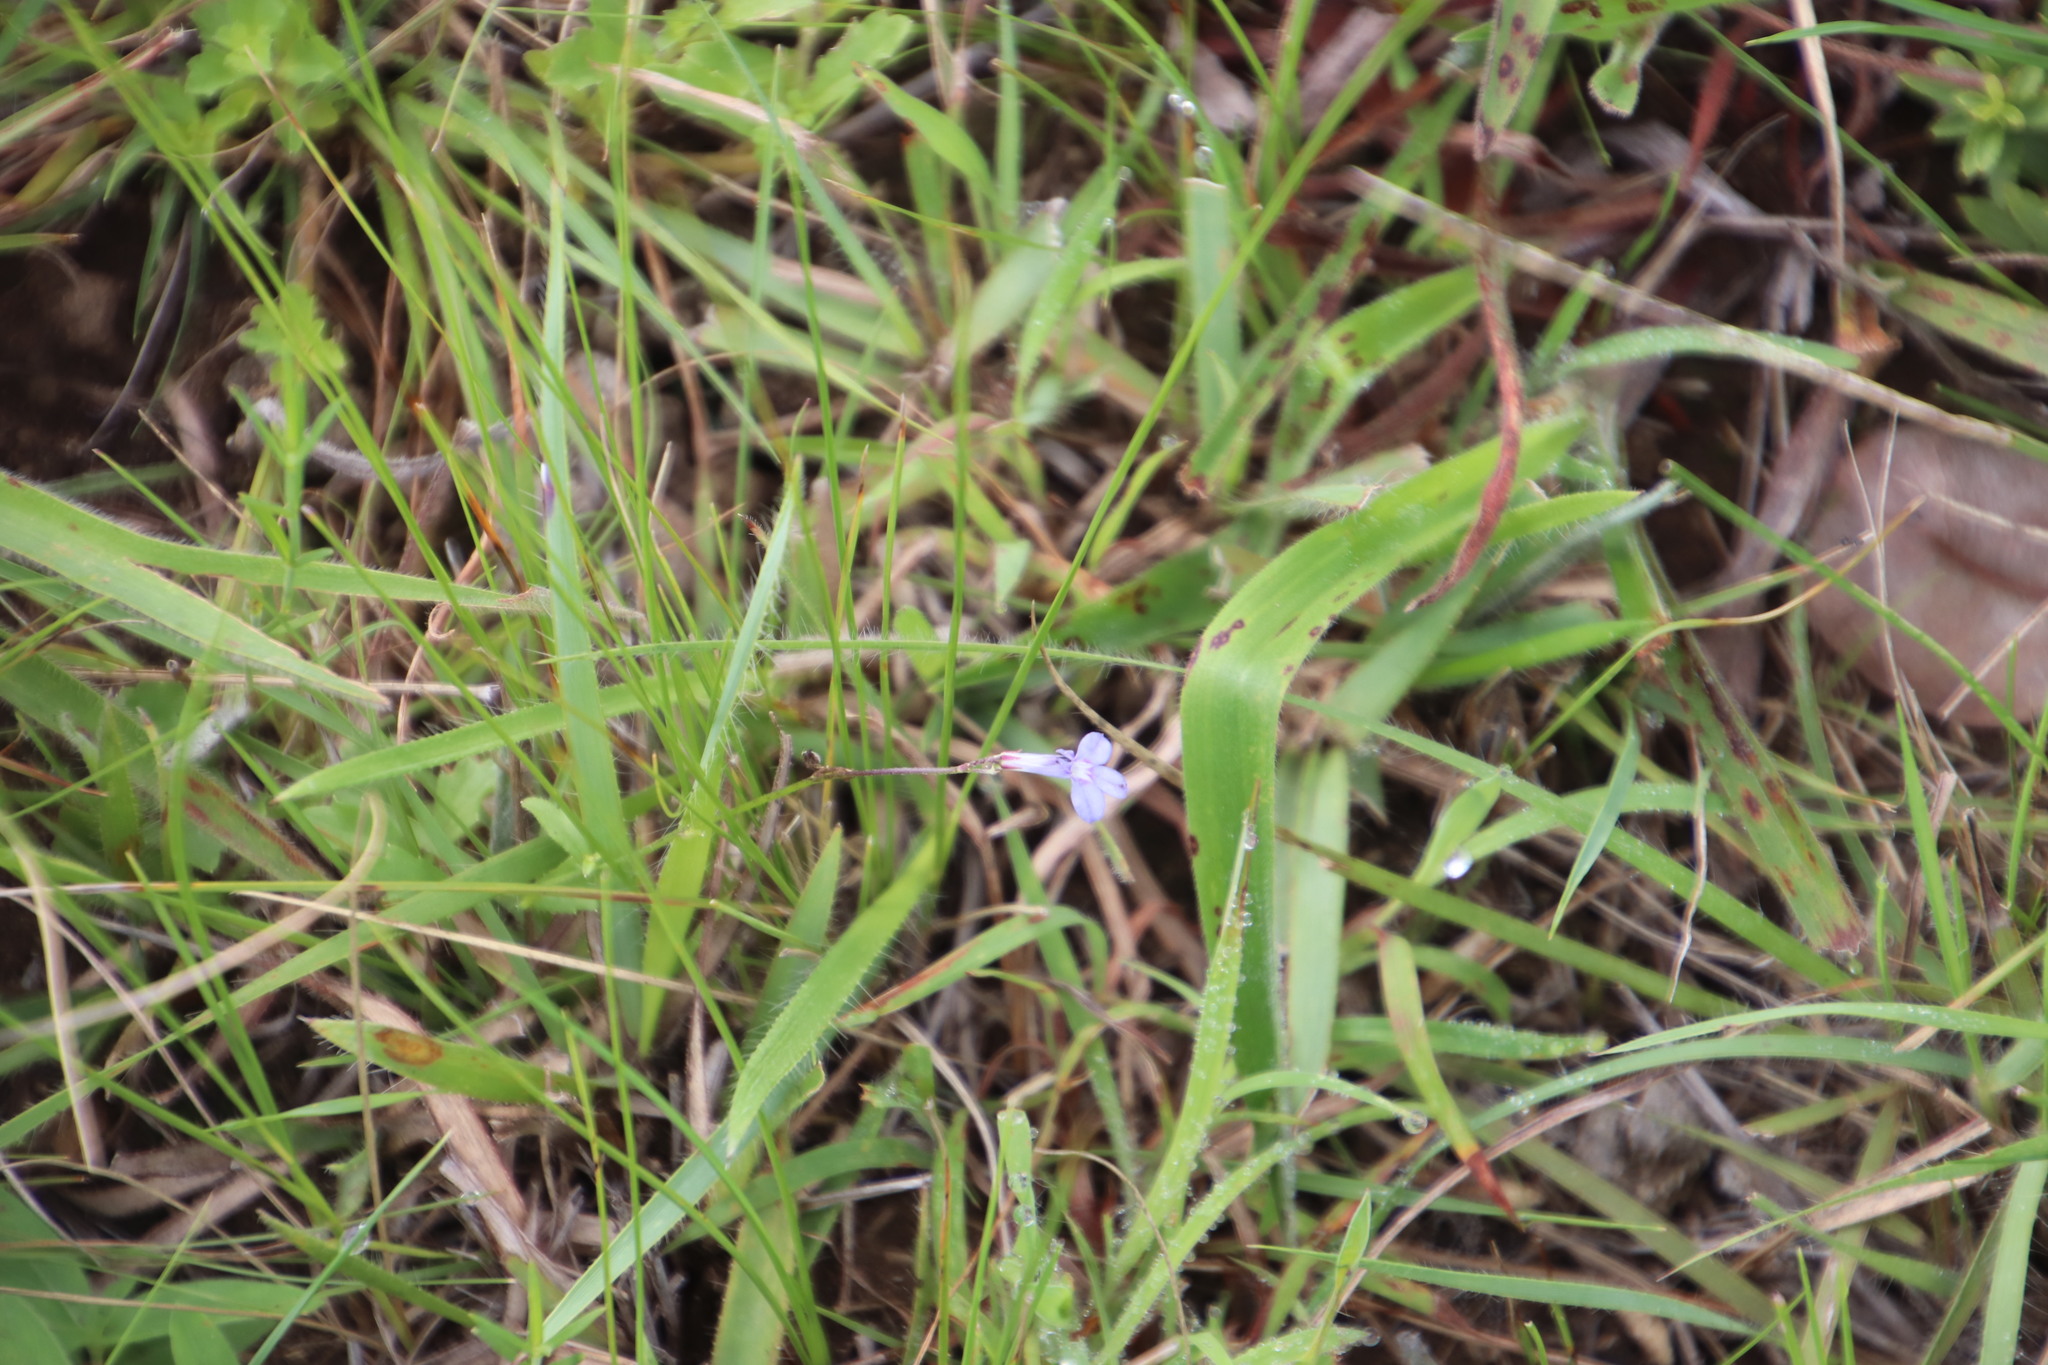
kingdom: Plantae
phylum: Tracheophyta
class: Magnoliopsida
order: Asterales
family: Campanulaceae
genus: Lobelia
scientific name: Lobelia chamaedryfolia
